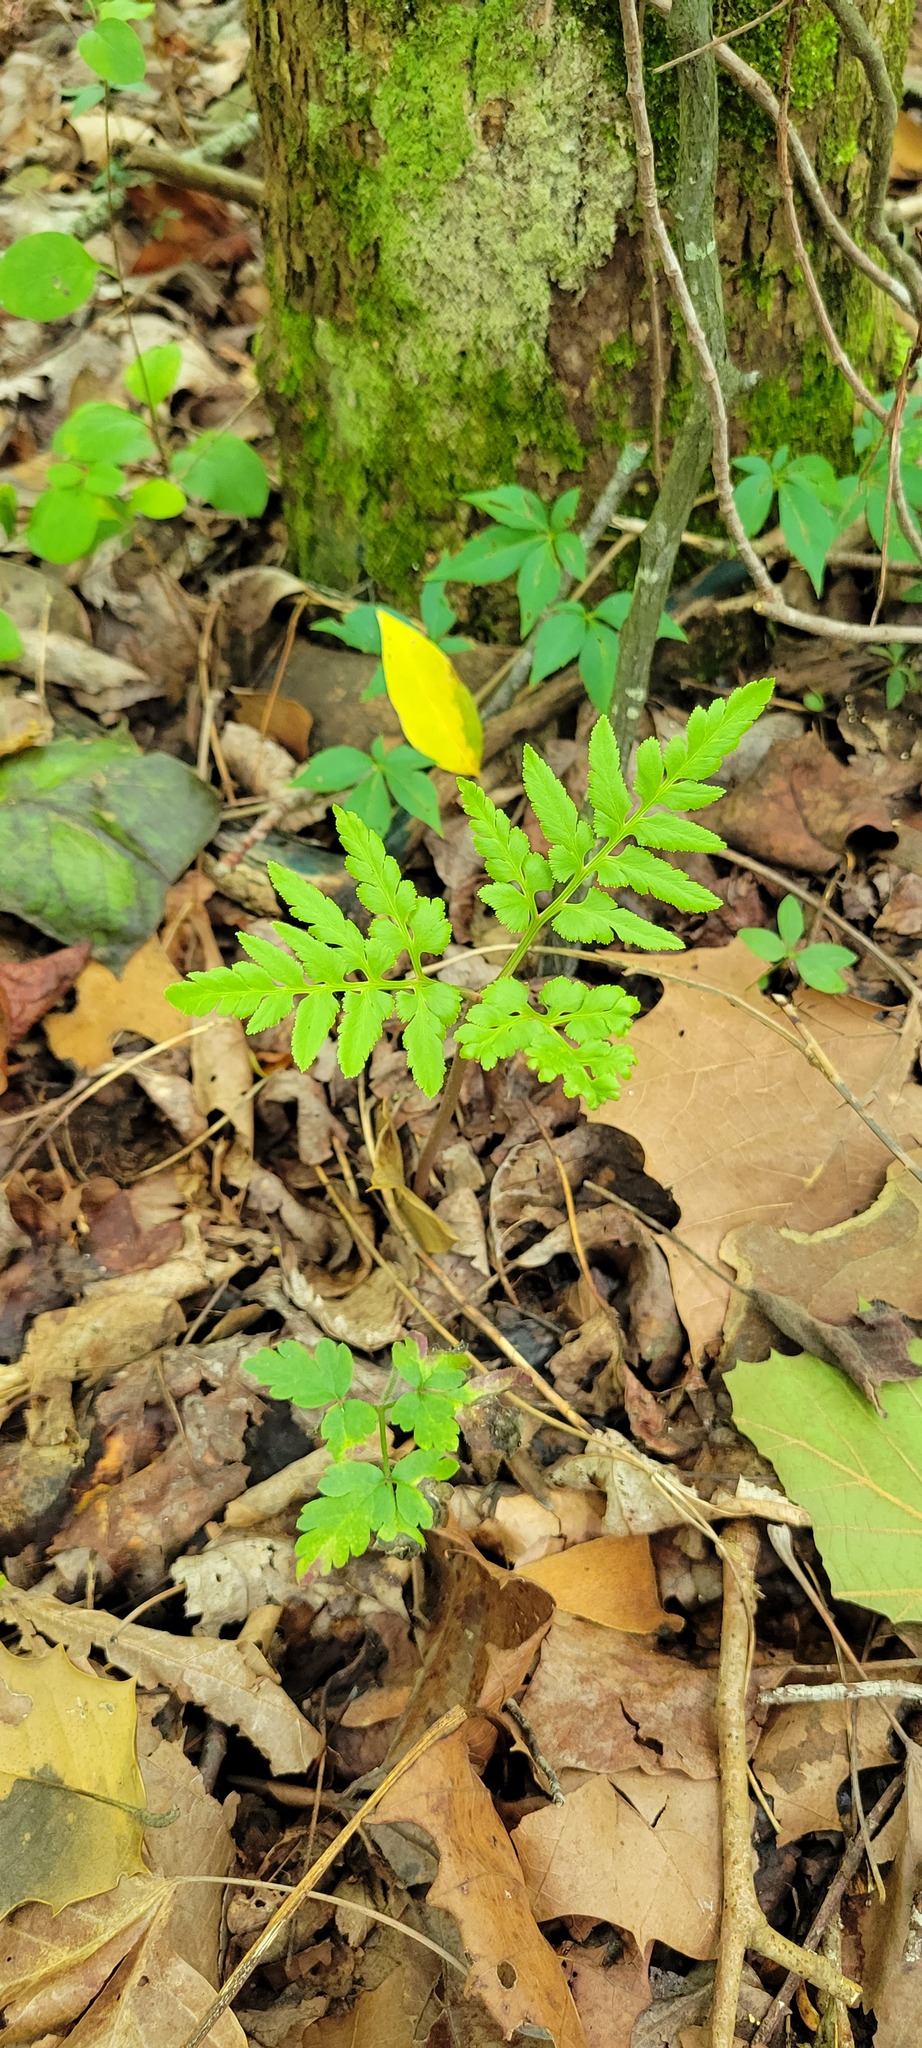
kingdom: Plantae
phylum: Tracheophyta
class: Polypodiopsida
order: Ophioglossales
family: Ophioglossaceae
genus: Sceptridium
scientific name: Sceptridium dissectum
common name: Cut-leaved grapefern
